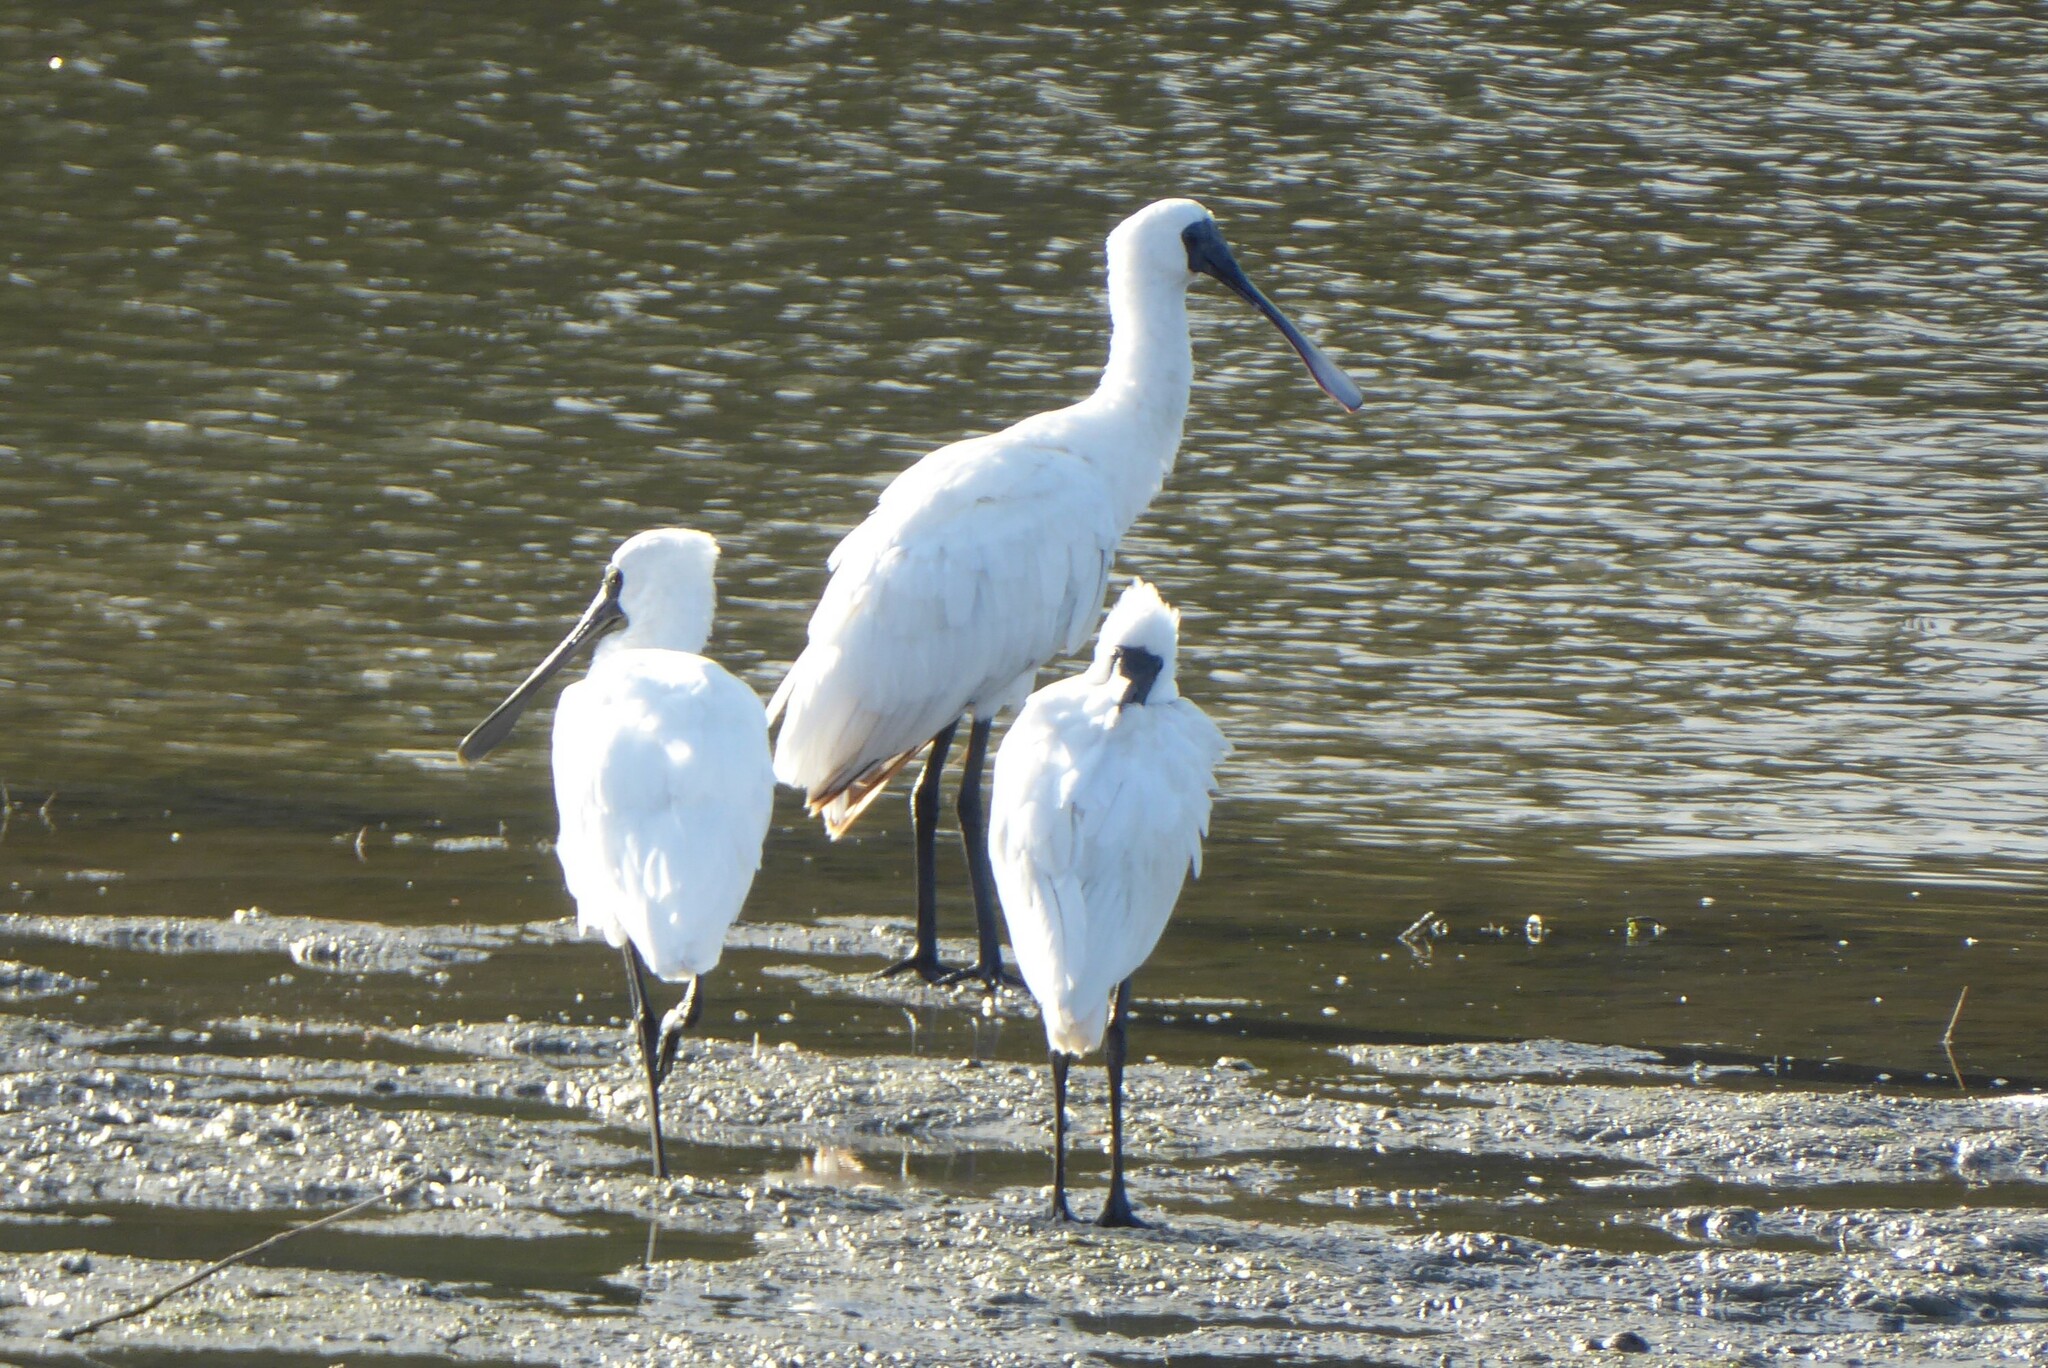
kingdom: Animalia
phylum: Chordata
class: Aves
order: Pelecaniformes
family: Threskiornithidae
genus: Platalea
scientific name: Platalea regia
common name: Royal spoonbill
